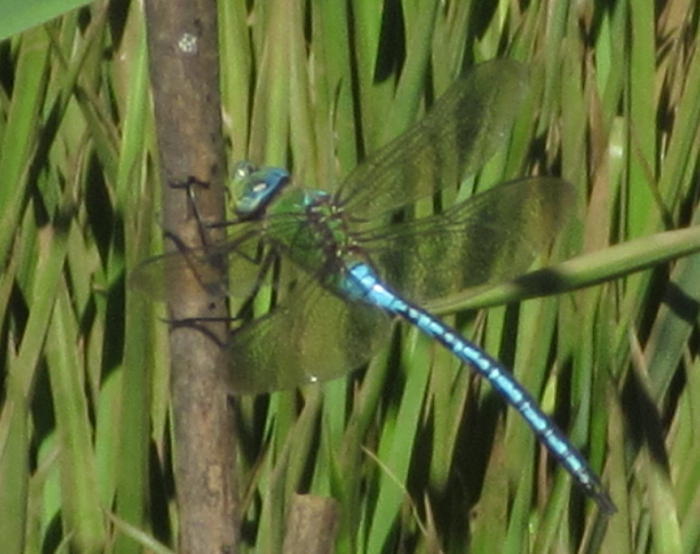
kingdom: Animalia
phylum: Arthropoda
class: Insecta
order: Odonata
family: Aeshnidae
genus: Anax
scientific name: Anax imperator
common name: Emperor dragonfly
